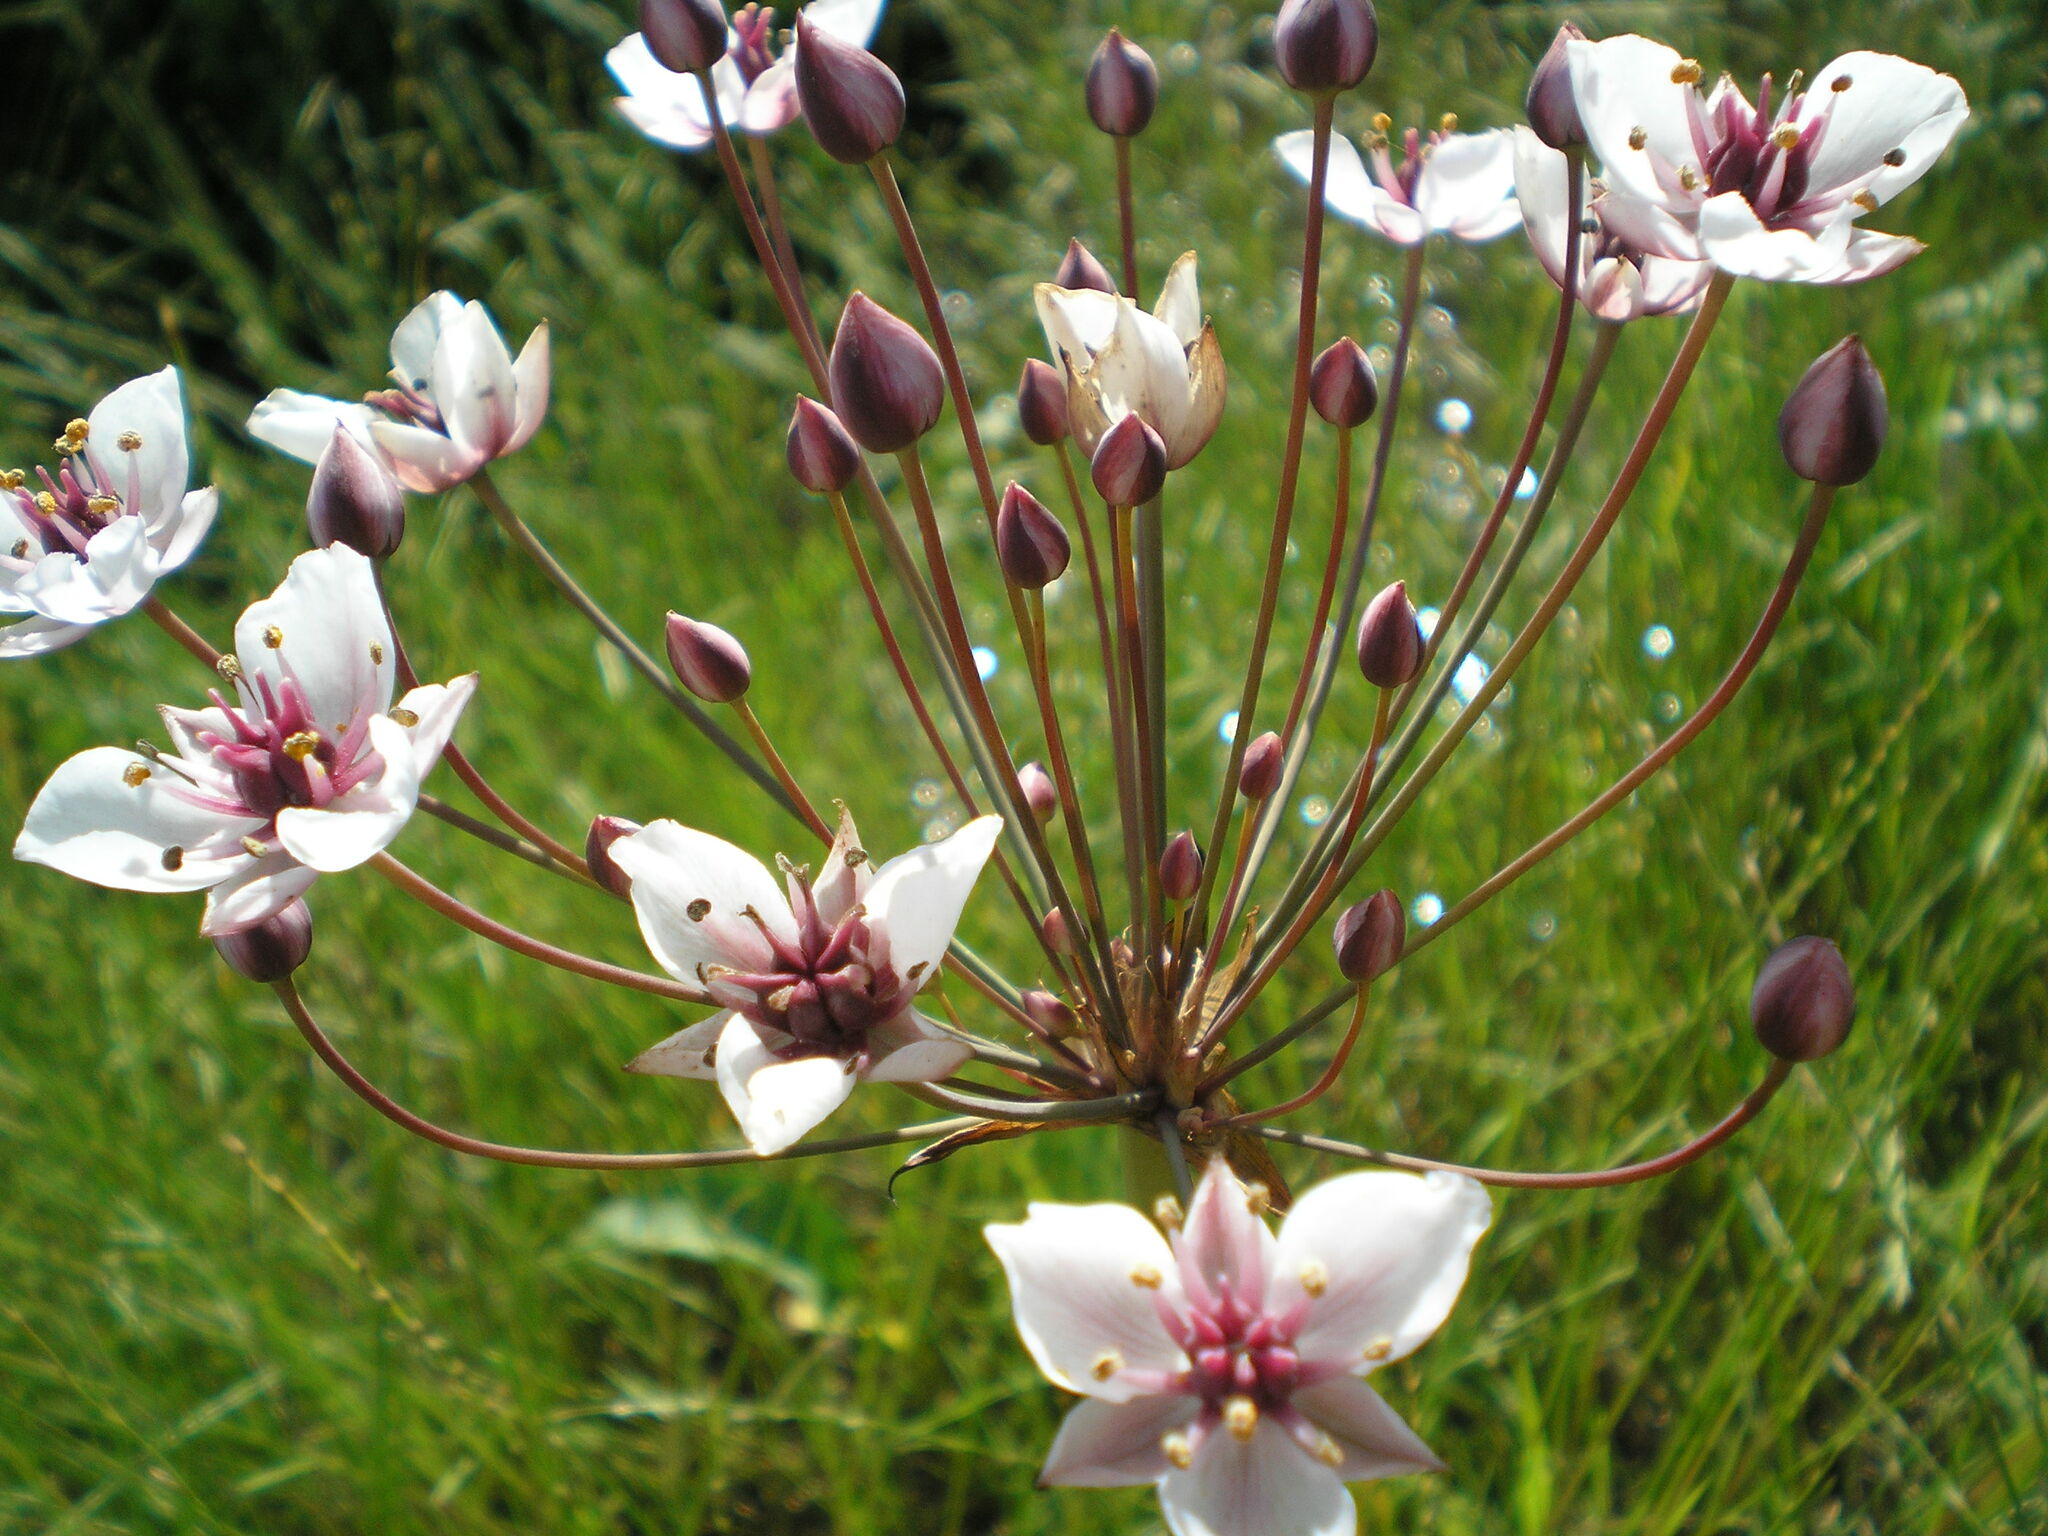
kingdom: Plantae
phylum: Tracheophyta
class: Liliopsida
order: Alismatales
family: Butomaceae
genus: Butomus
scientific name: Butomus umbellatus
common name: Flowering-rush
